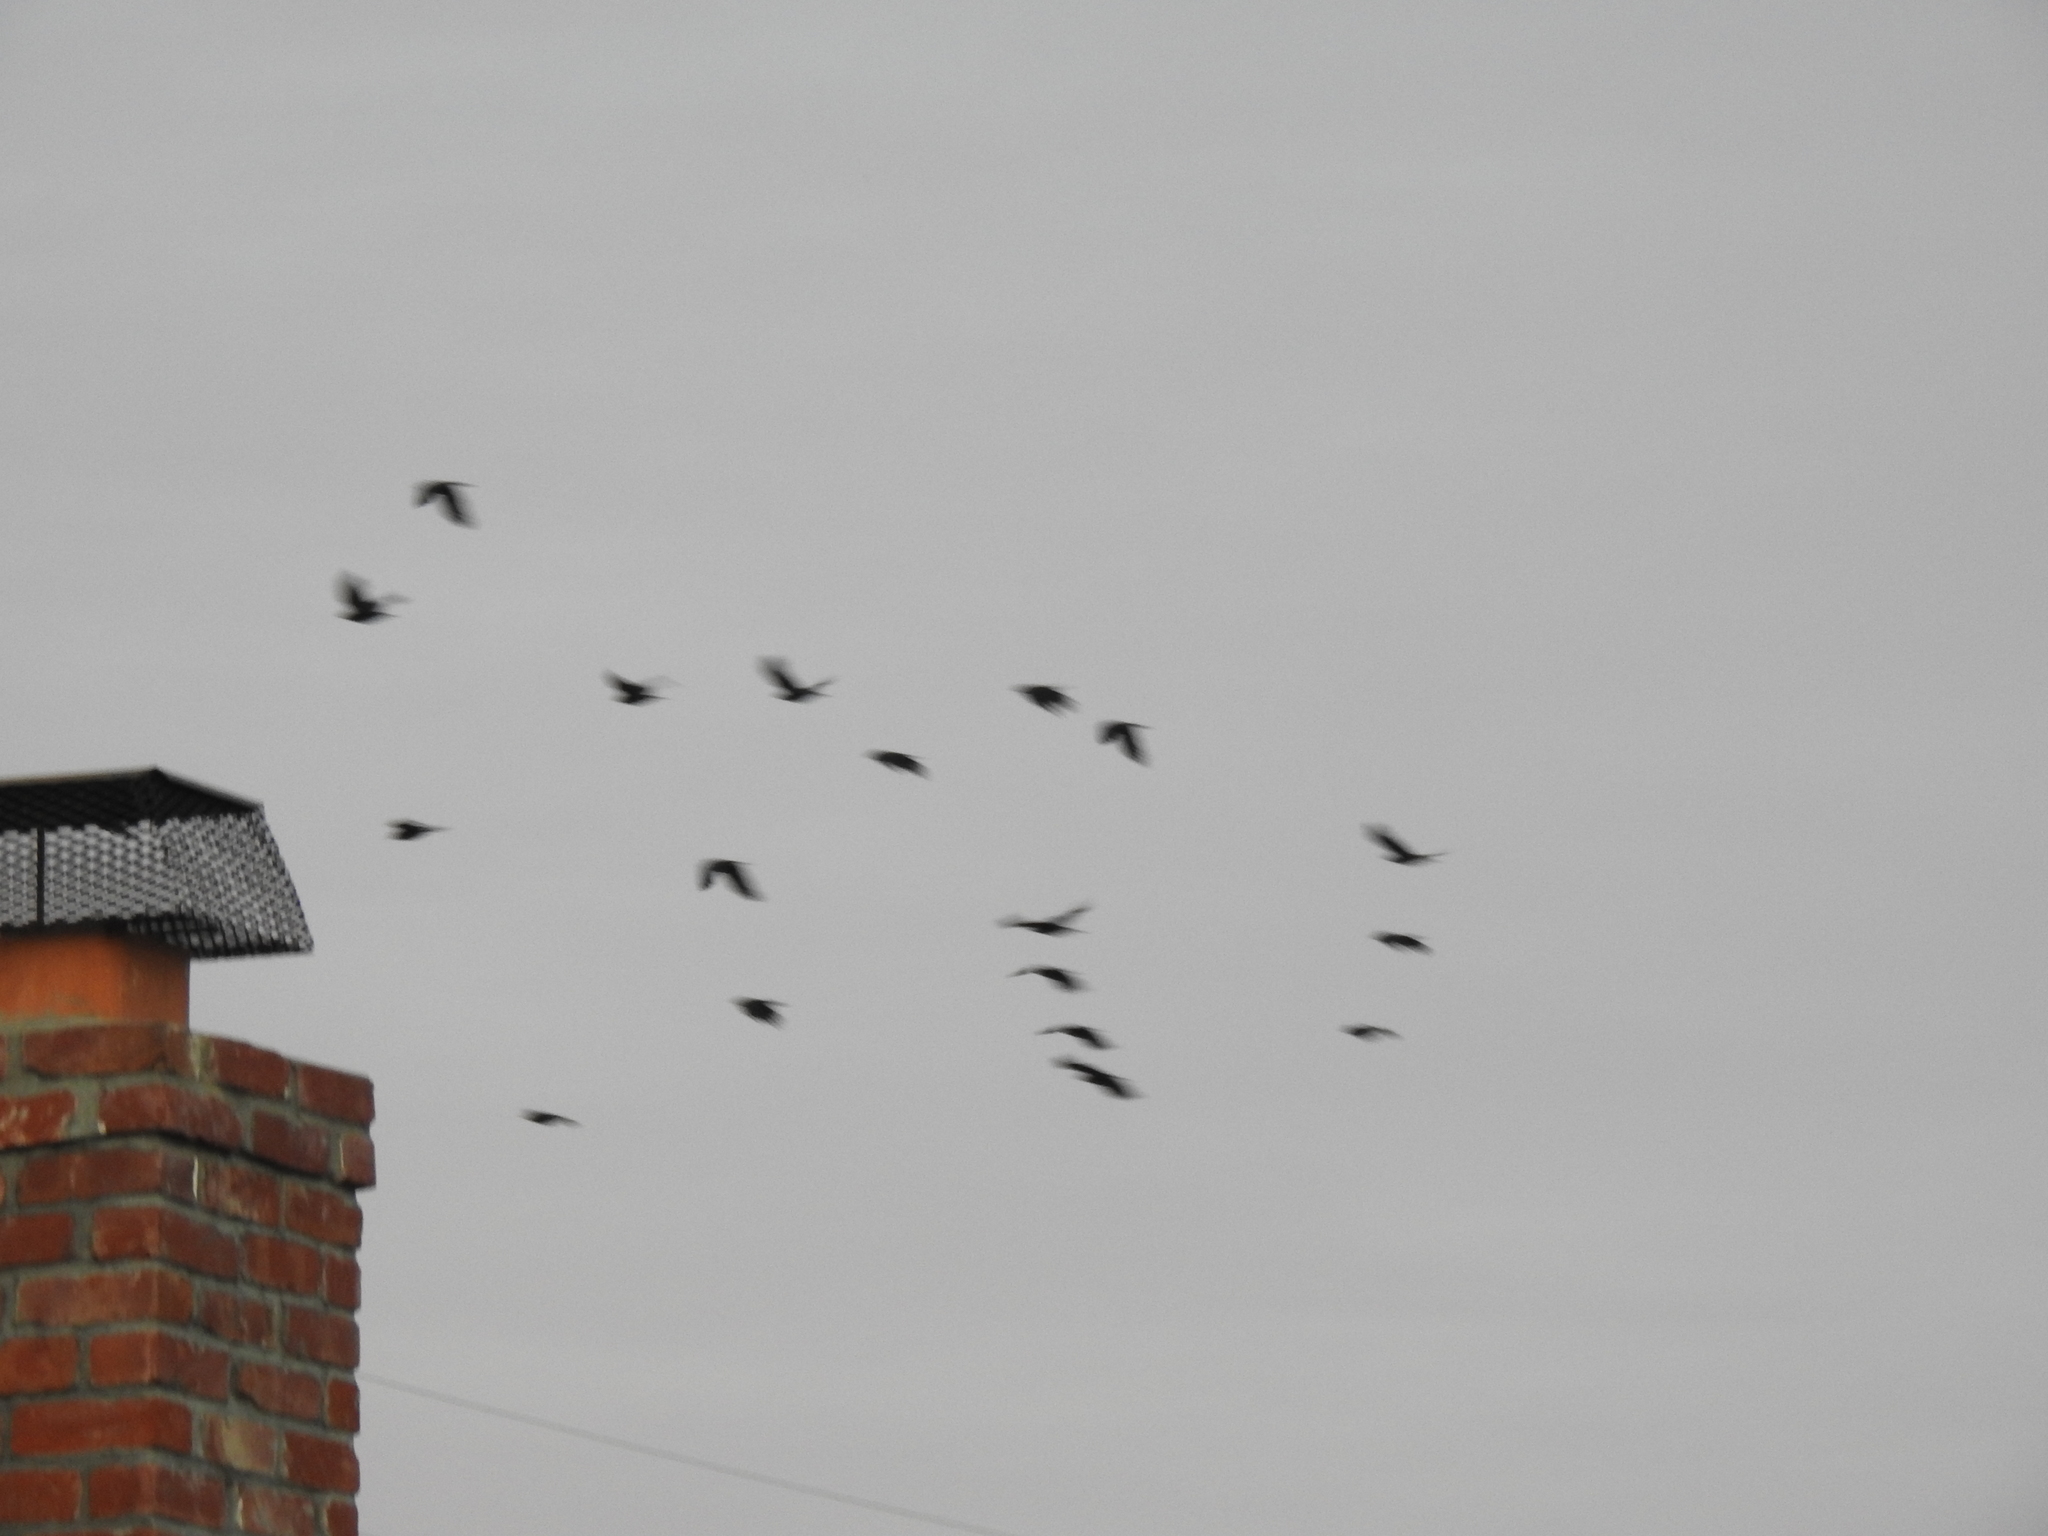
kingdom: Animalia
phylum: Chordata
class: Aves
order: Passeriformes
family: Corvidae
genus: Corvus
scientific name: Corvus brachyrhynchos
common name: American crow
